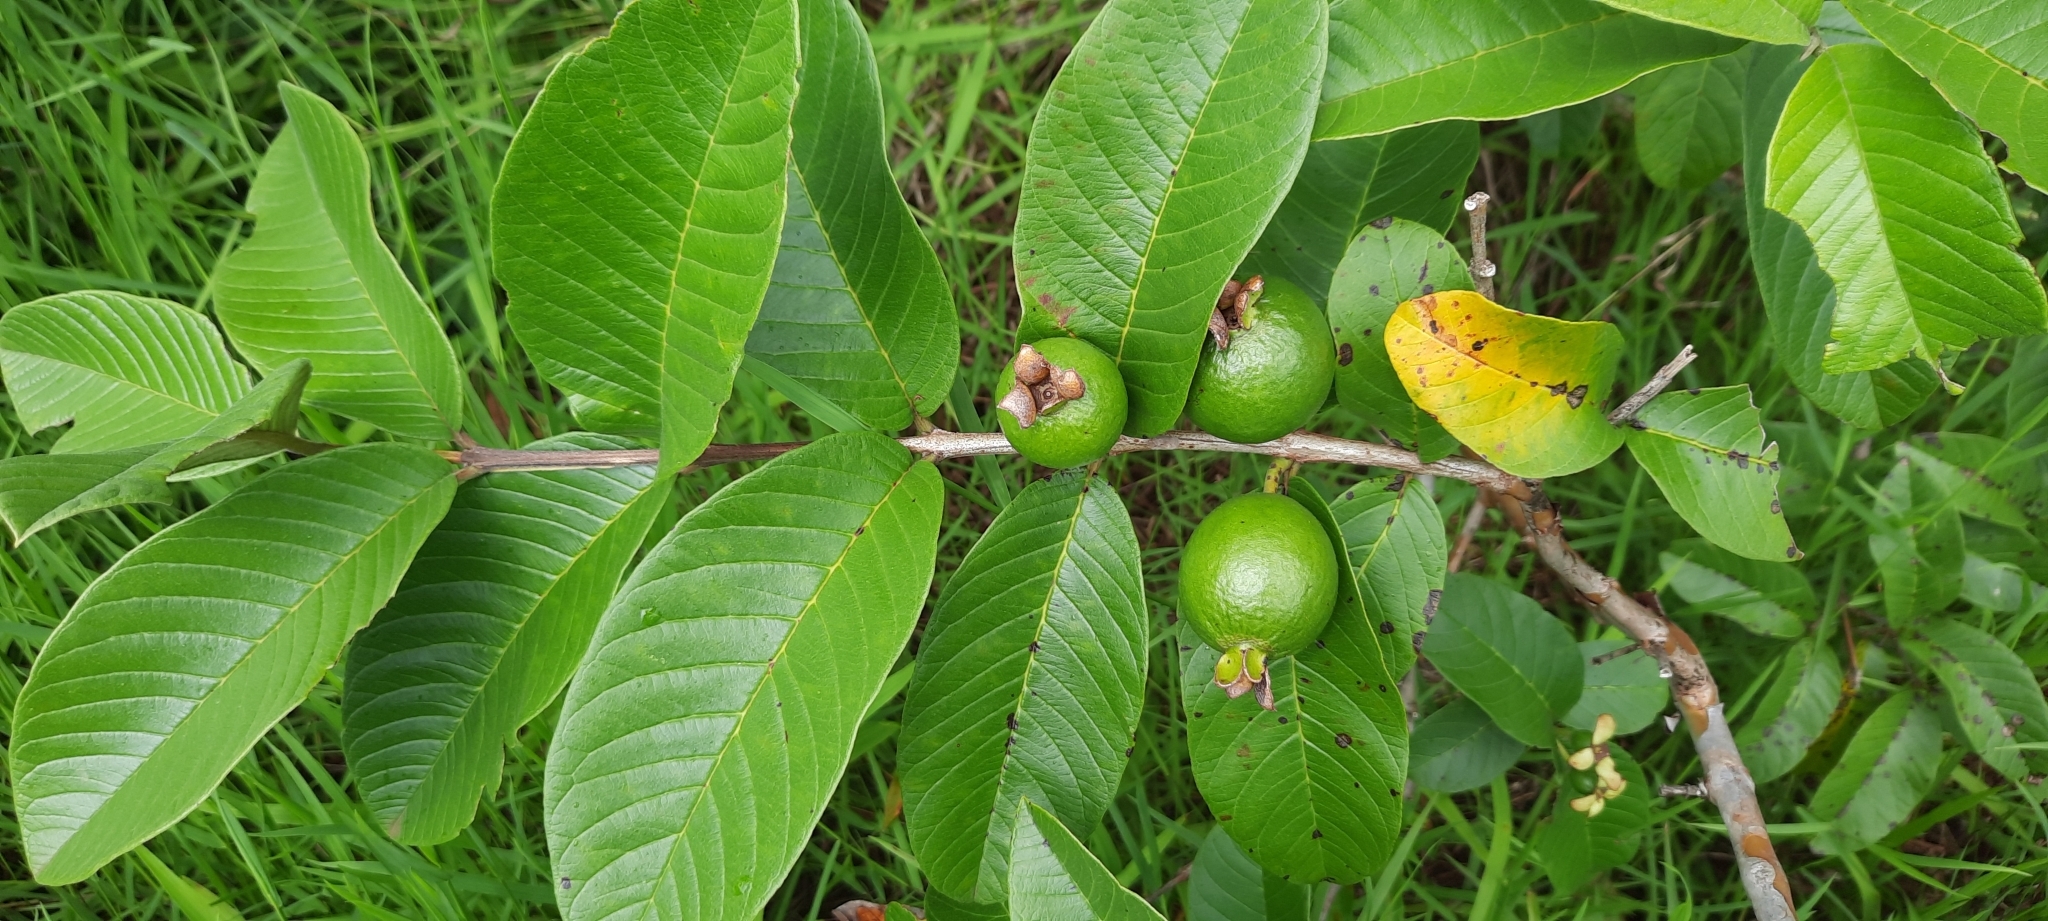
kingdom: Plantae
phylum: Tracheophyta
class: Magnoliopsida
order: Myrtales
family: Myrtaceae
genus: Psidium
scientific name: Psidium guajava
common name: Guava
